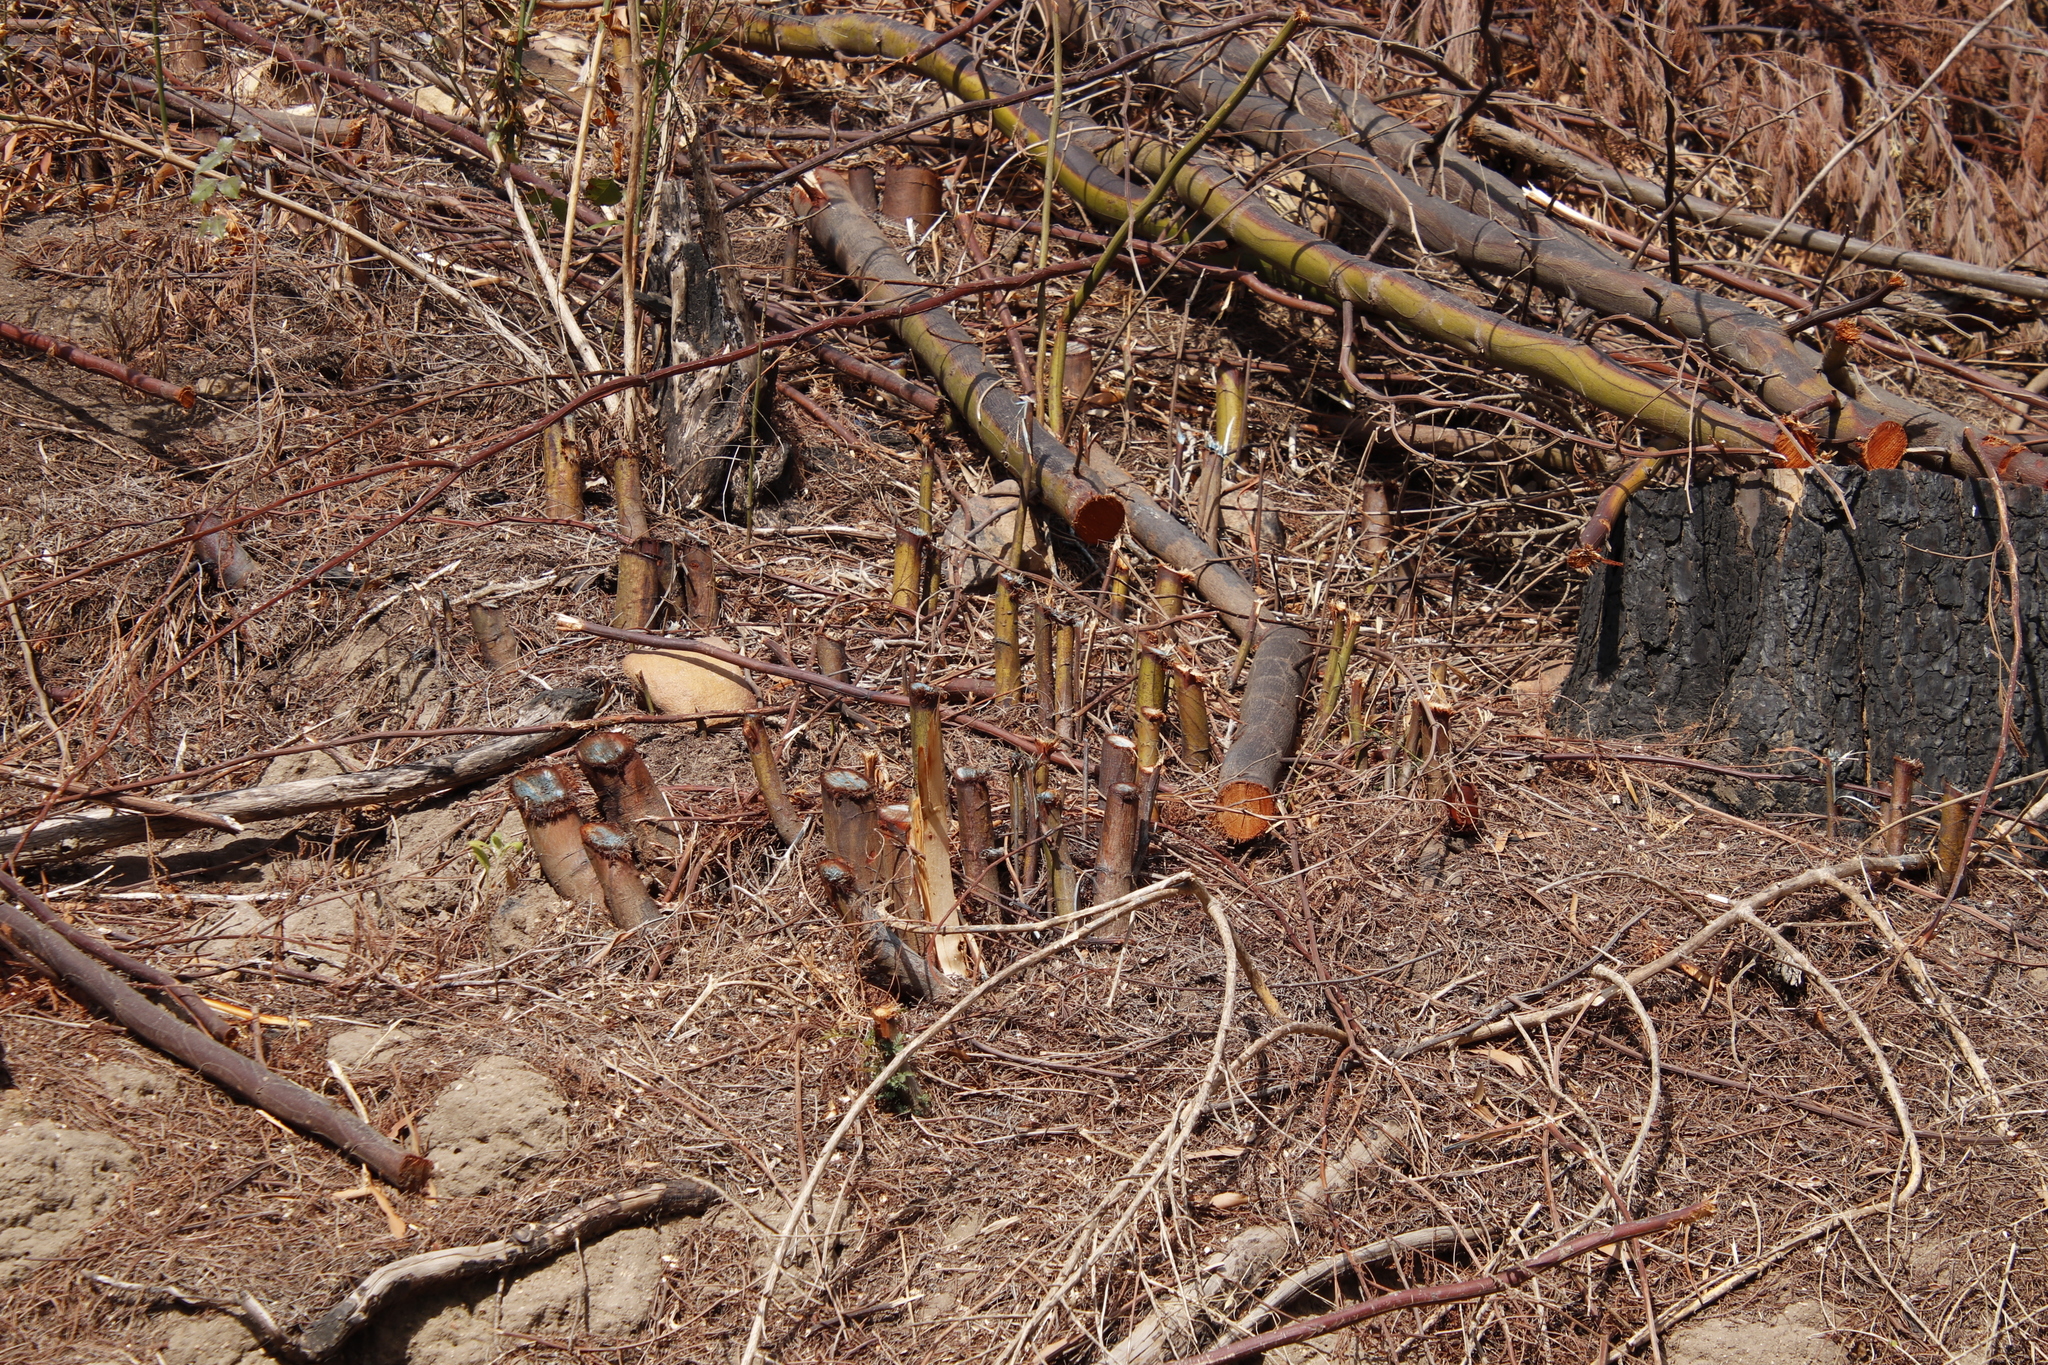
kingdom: Plantae
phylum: Tracheophyta
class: Magnoliopsida
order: Fabales
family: Fabaceae
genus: Acacia
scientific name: Acacia melanoxylon
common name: Blackwood
